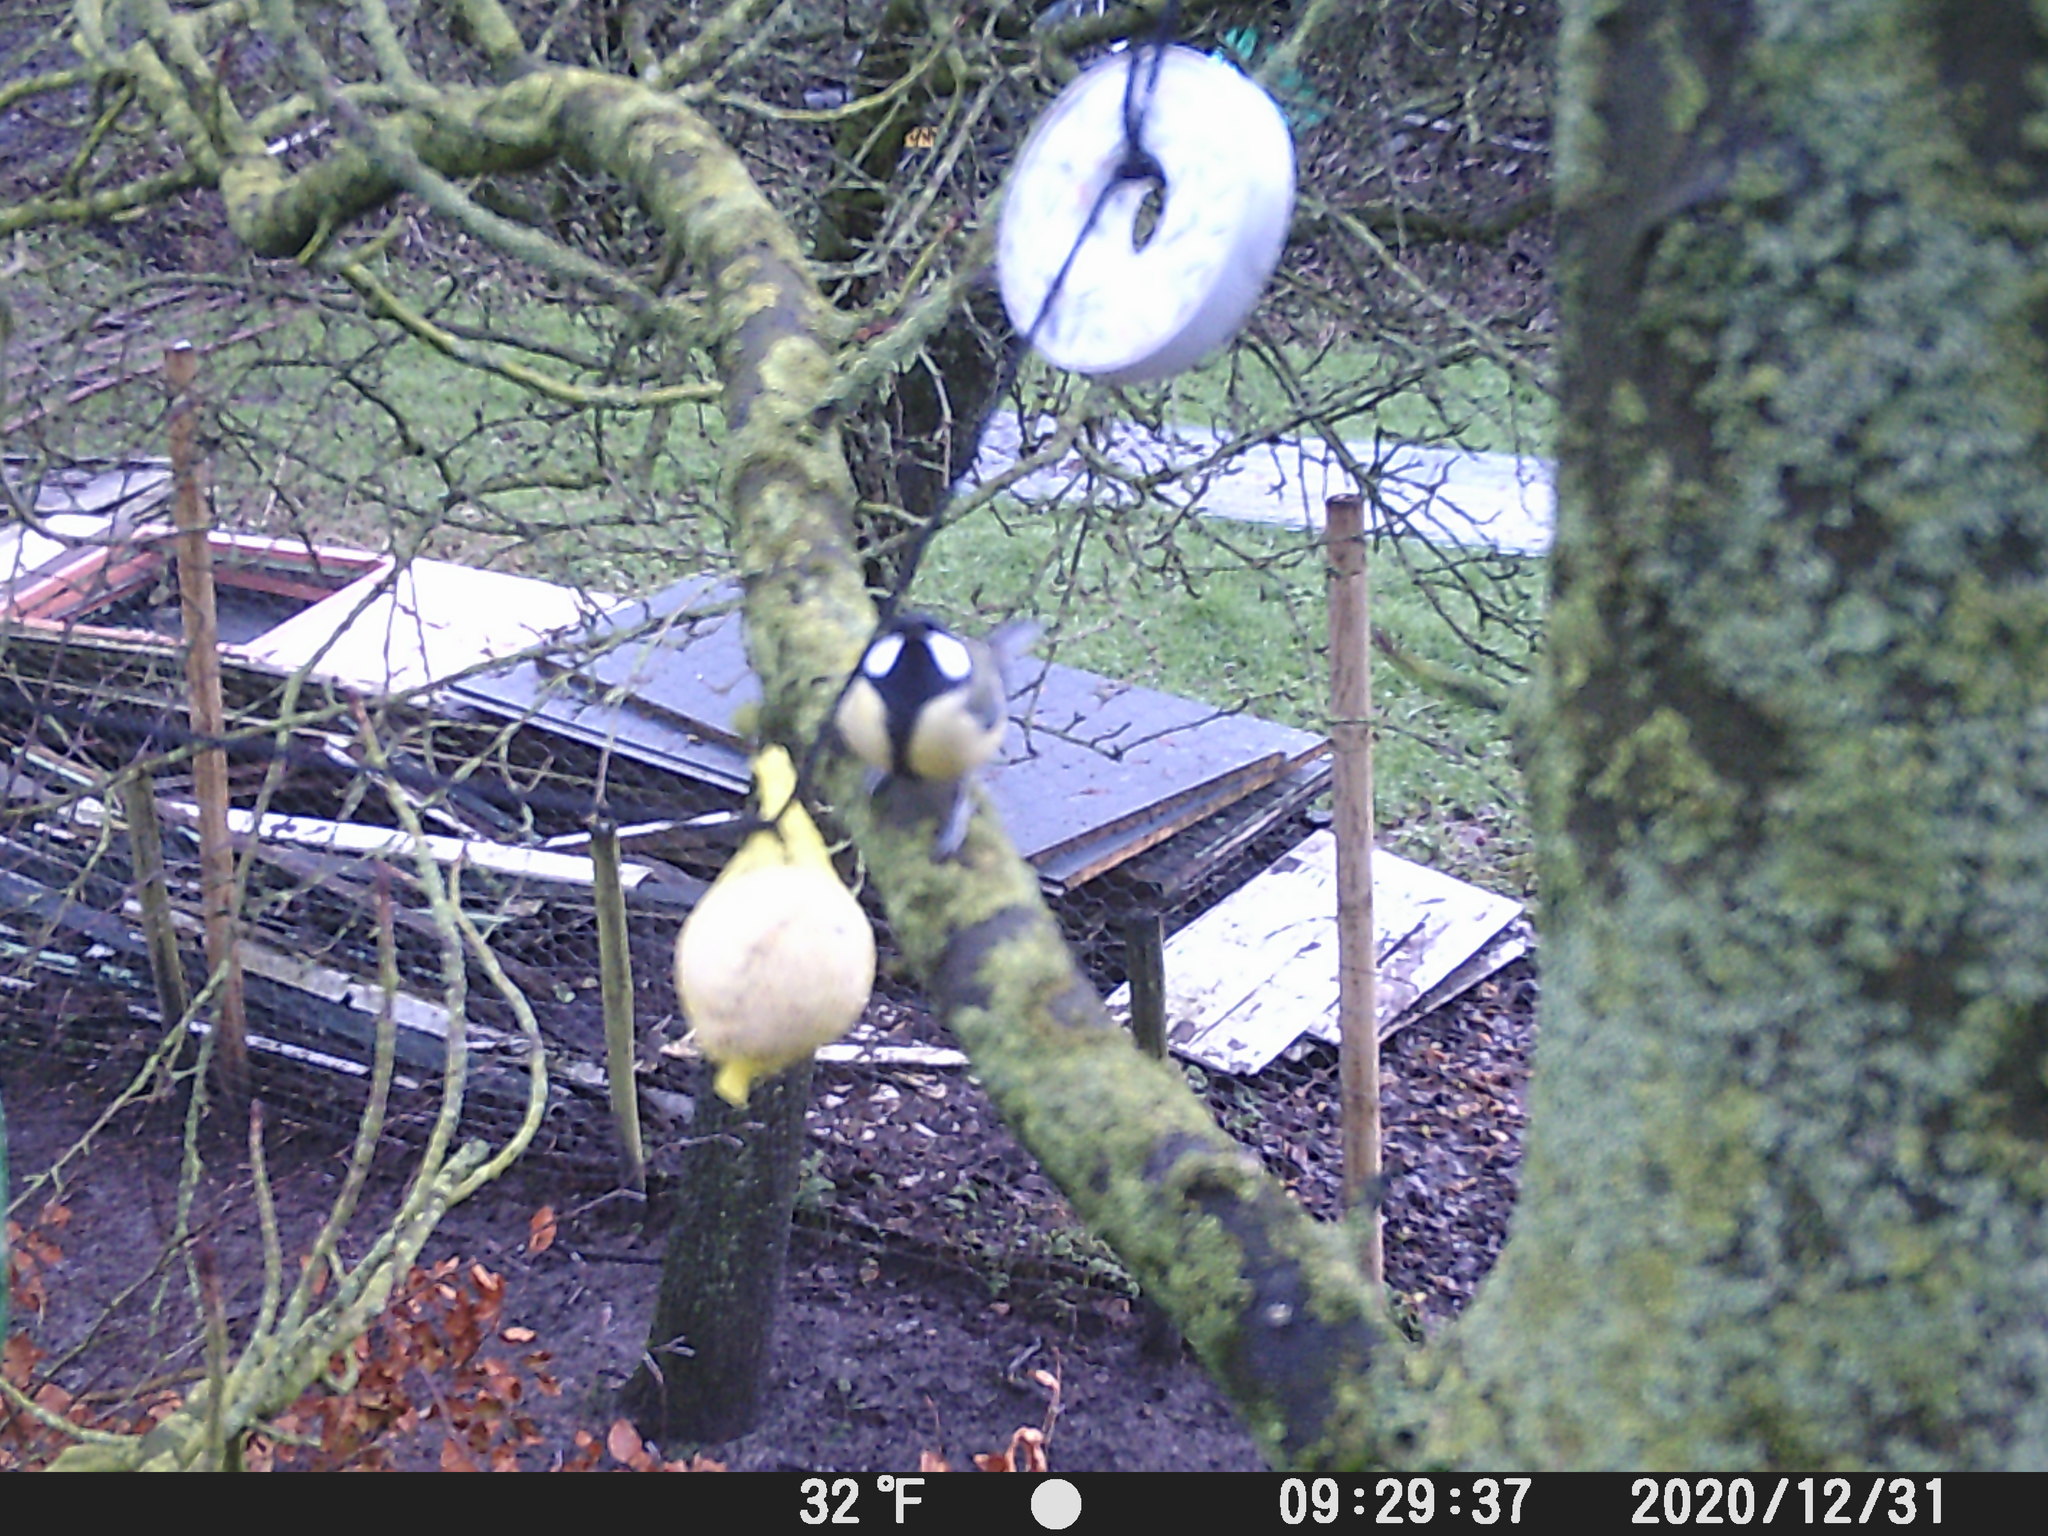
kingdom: Animalia
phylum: Chordata
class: Aves
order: Passeriformes
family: Paridae
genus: Parus
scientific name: Parus major
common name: Great tit
